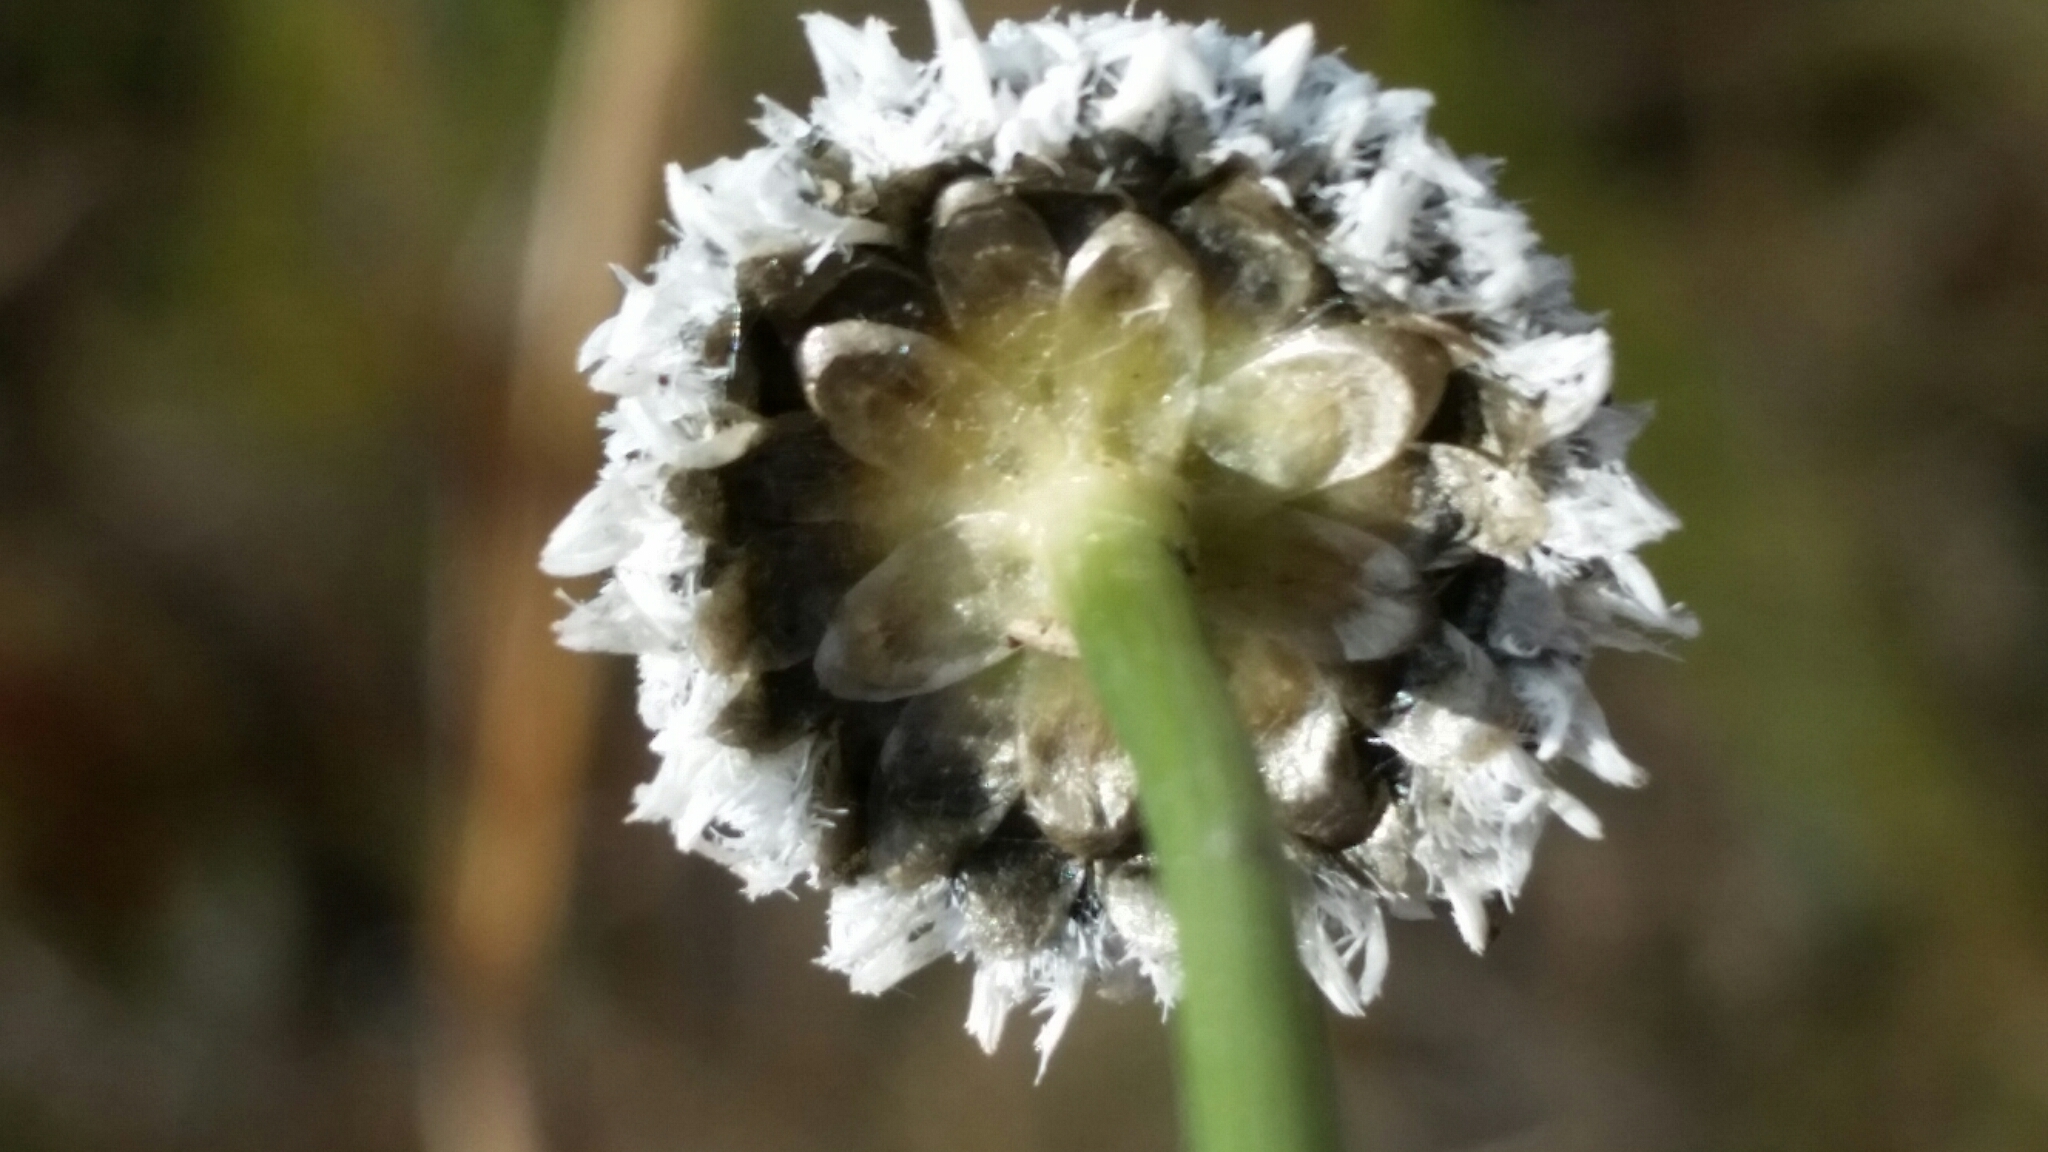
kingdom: Plantae
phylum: Tracheophyta
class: Liliopsida
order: Poales
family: Eriocaulaceae
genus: Eriocaulon
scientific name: Eriocaulon compressum
